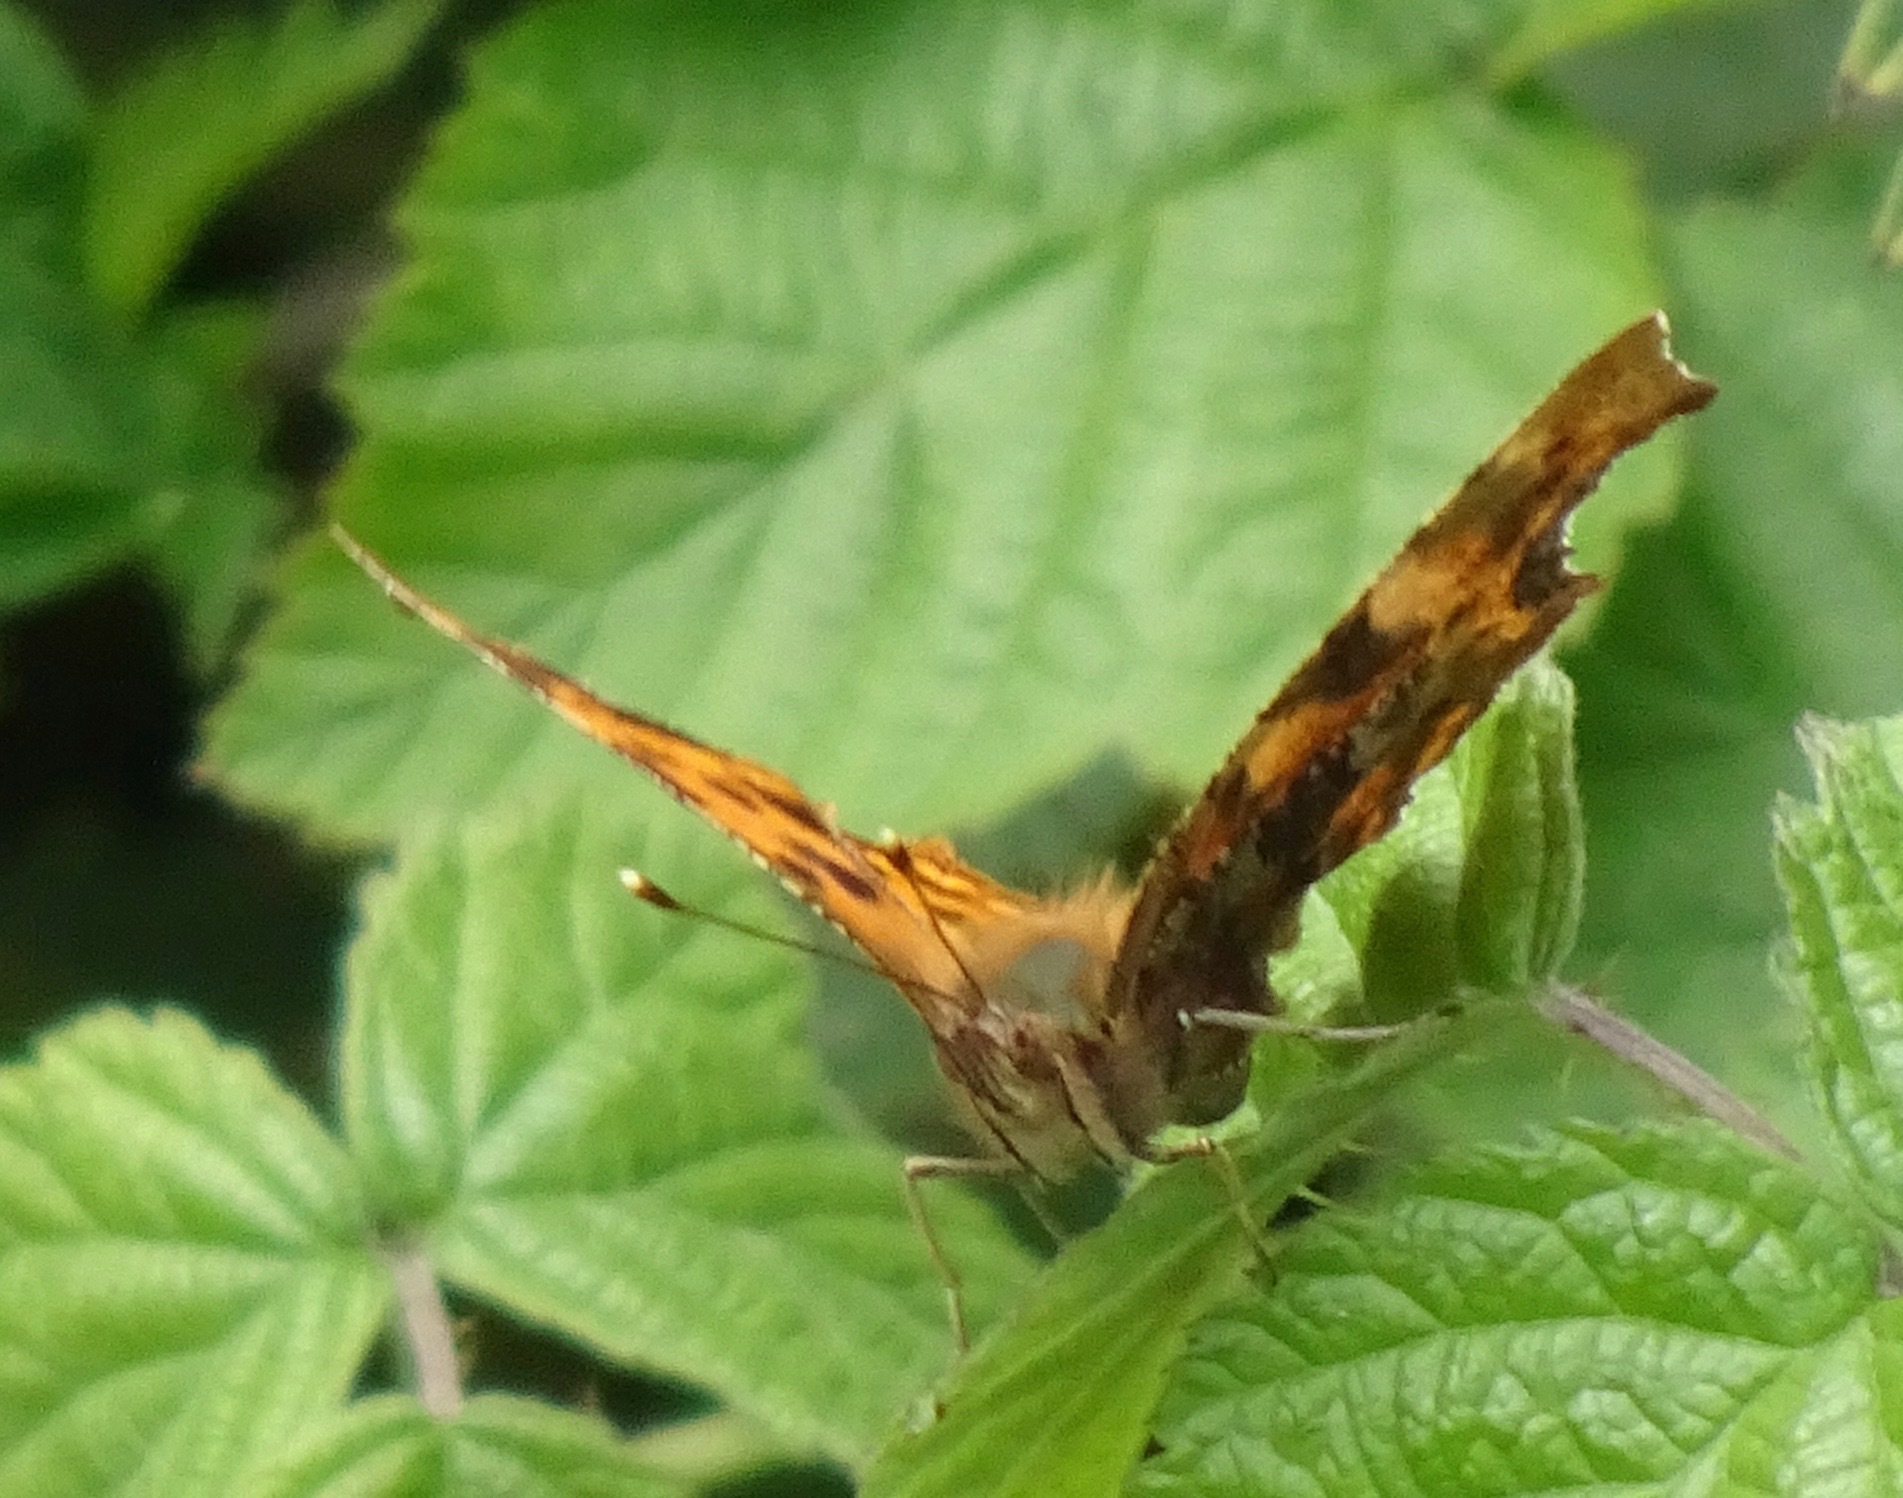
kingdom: Animalia
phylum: Arthropoda
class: Insecta
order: Lepidoptera
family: Nymphalidae
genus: Polygonia
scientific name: Polygonia c-album
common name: Comma
